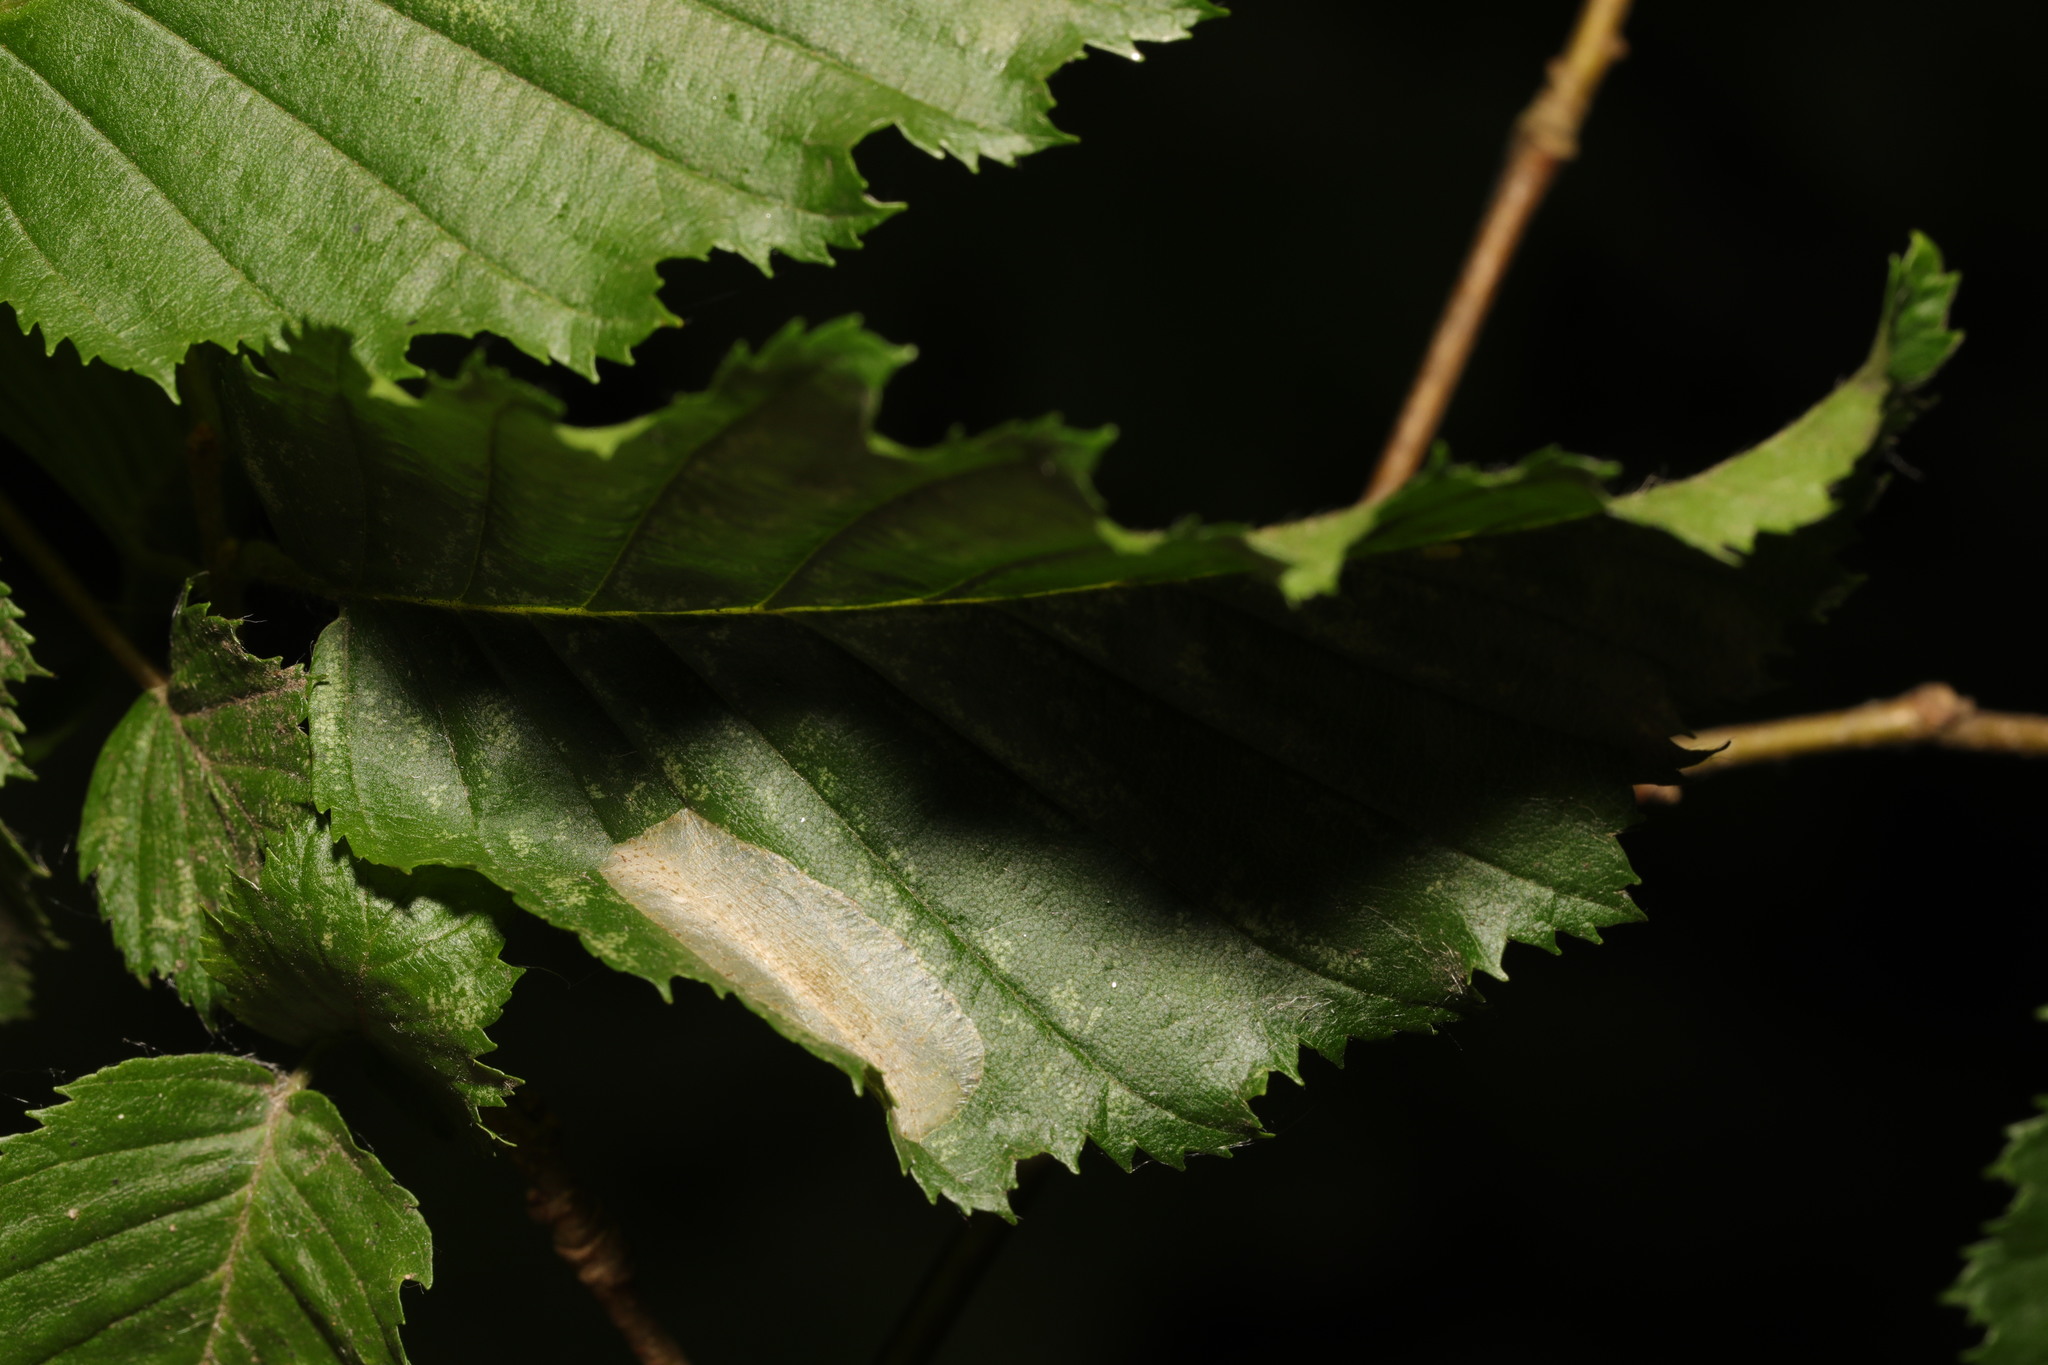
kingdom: Animalia
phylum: Arthropoda
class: Insecta
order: Lepidoptera
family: Gracillariidae
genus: Phyllonorycter
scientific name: Phyllonorycter esperella
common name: Dark hornbeam midget
